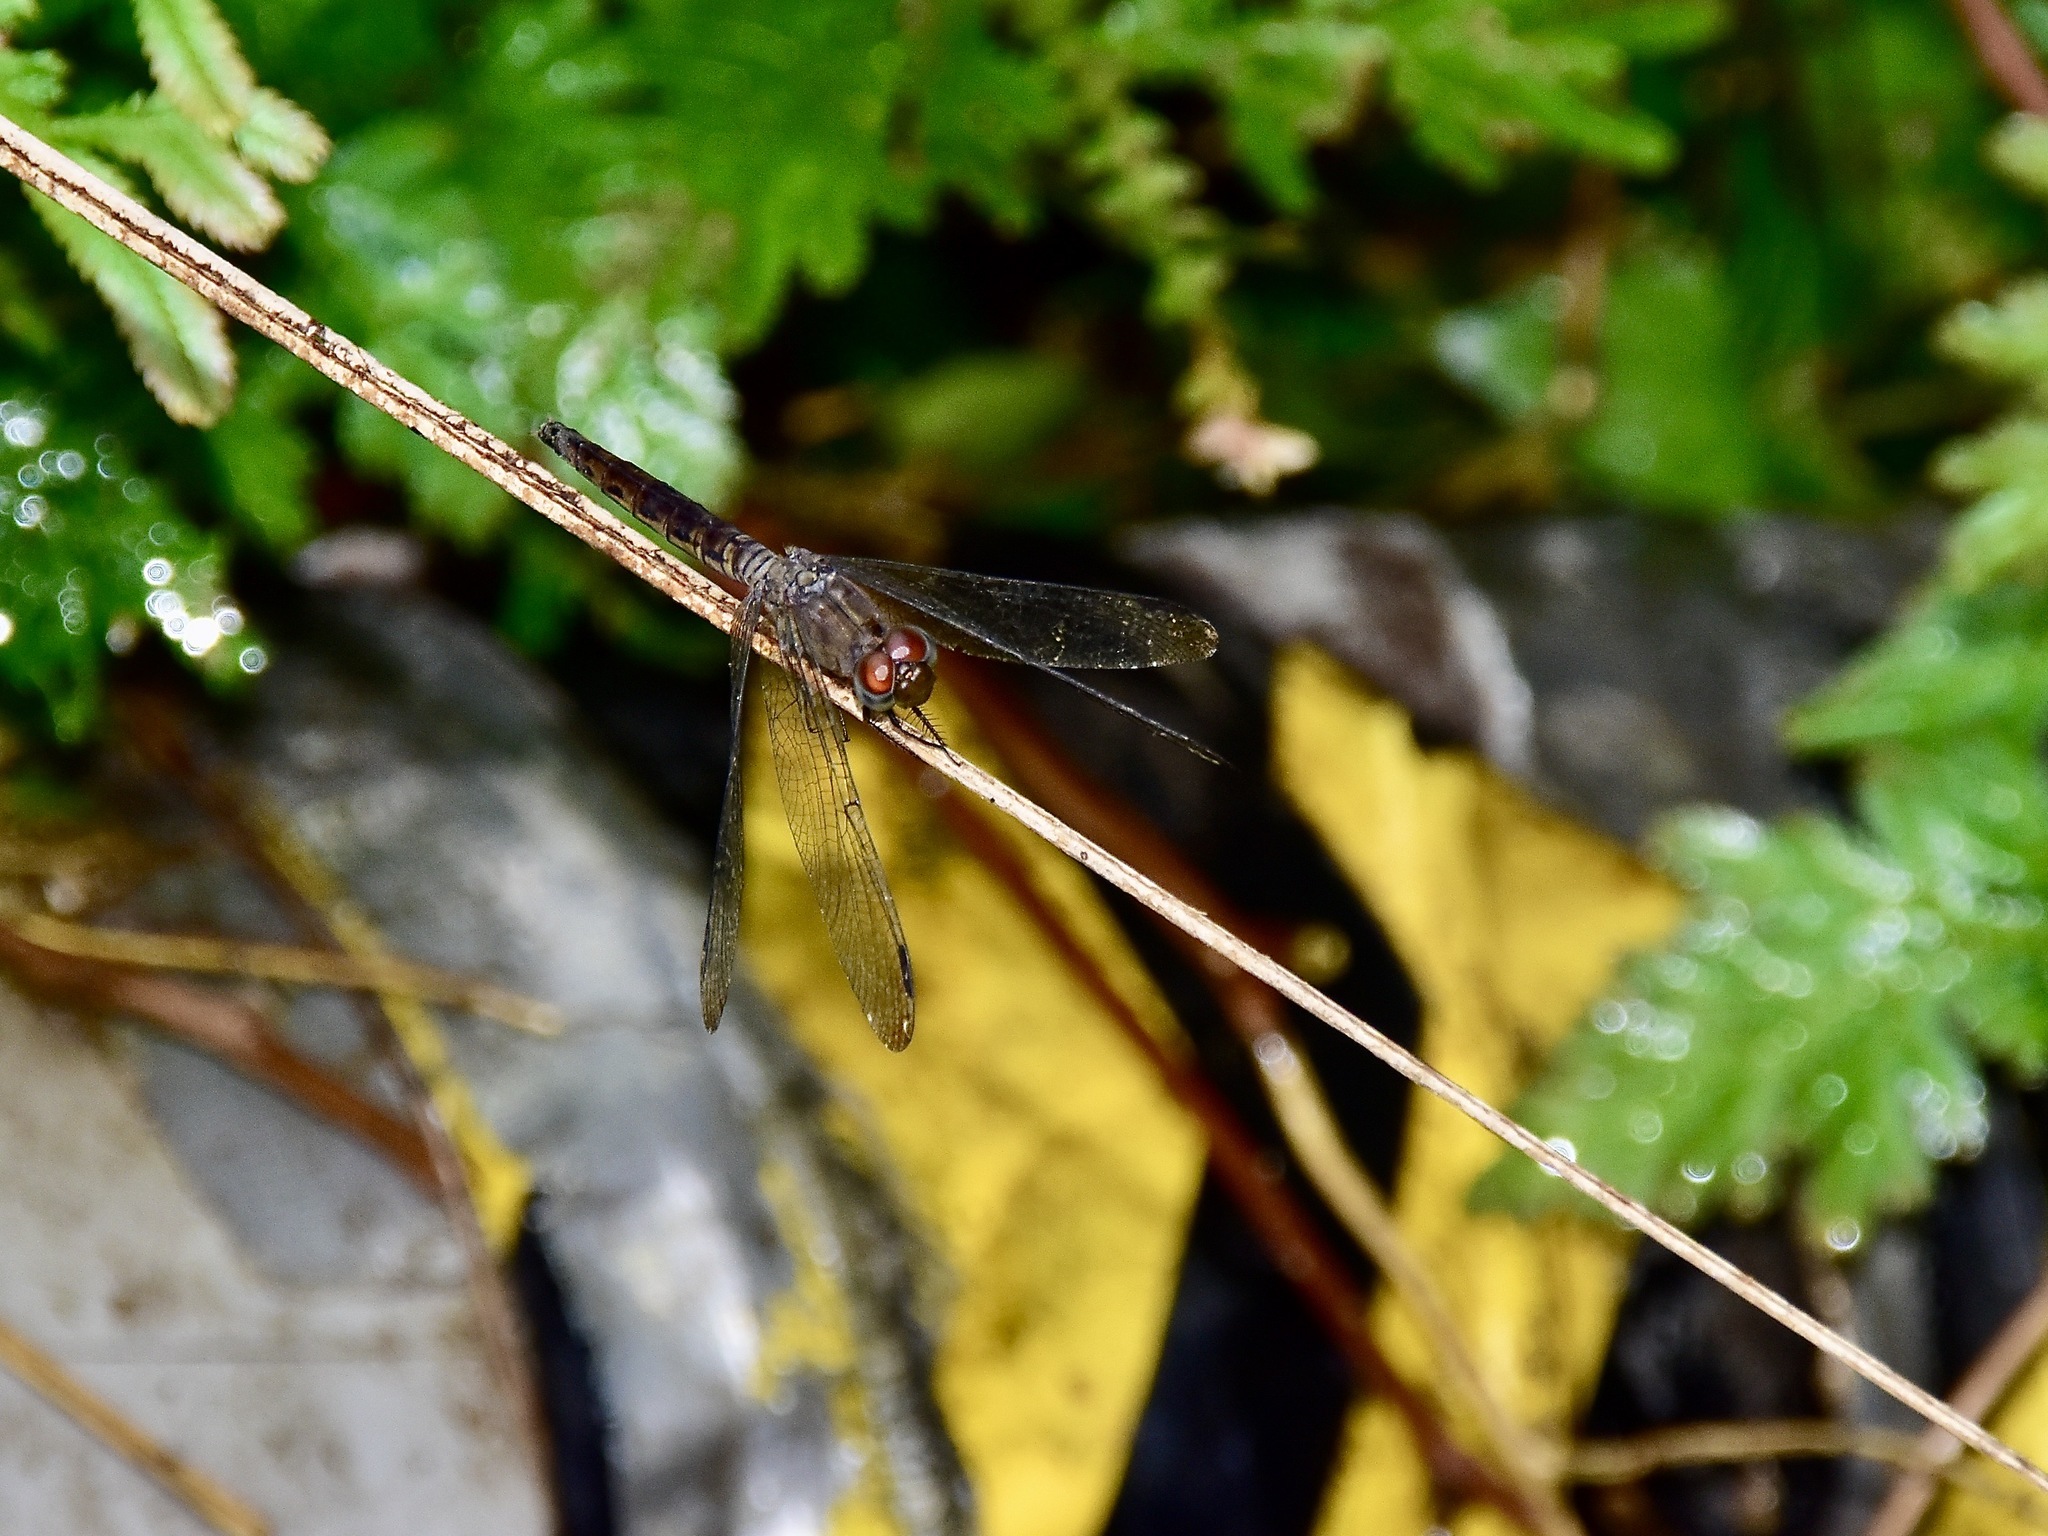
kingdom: Animalia
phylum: Arthropoda
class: Insecta
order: Odonata
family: Libellulidae
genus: Neurothemis
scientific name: Neurothemis fluctuans
